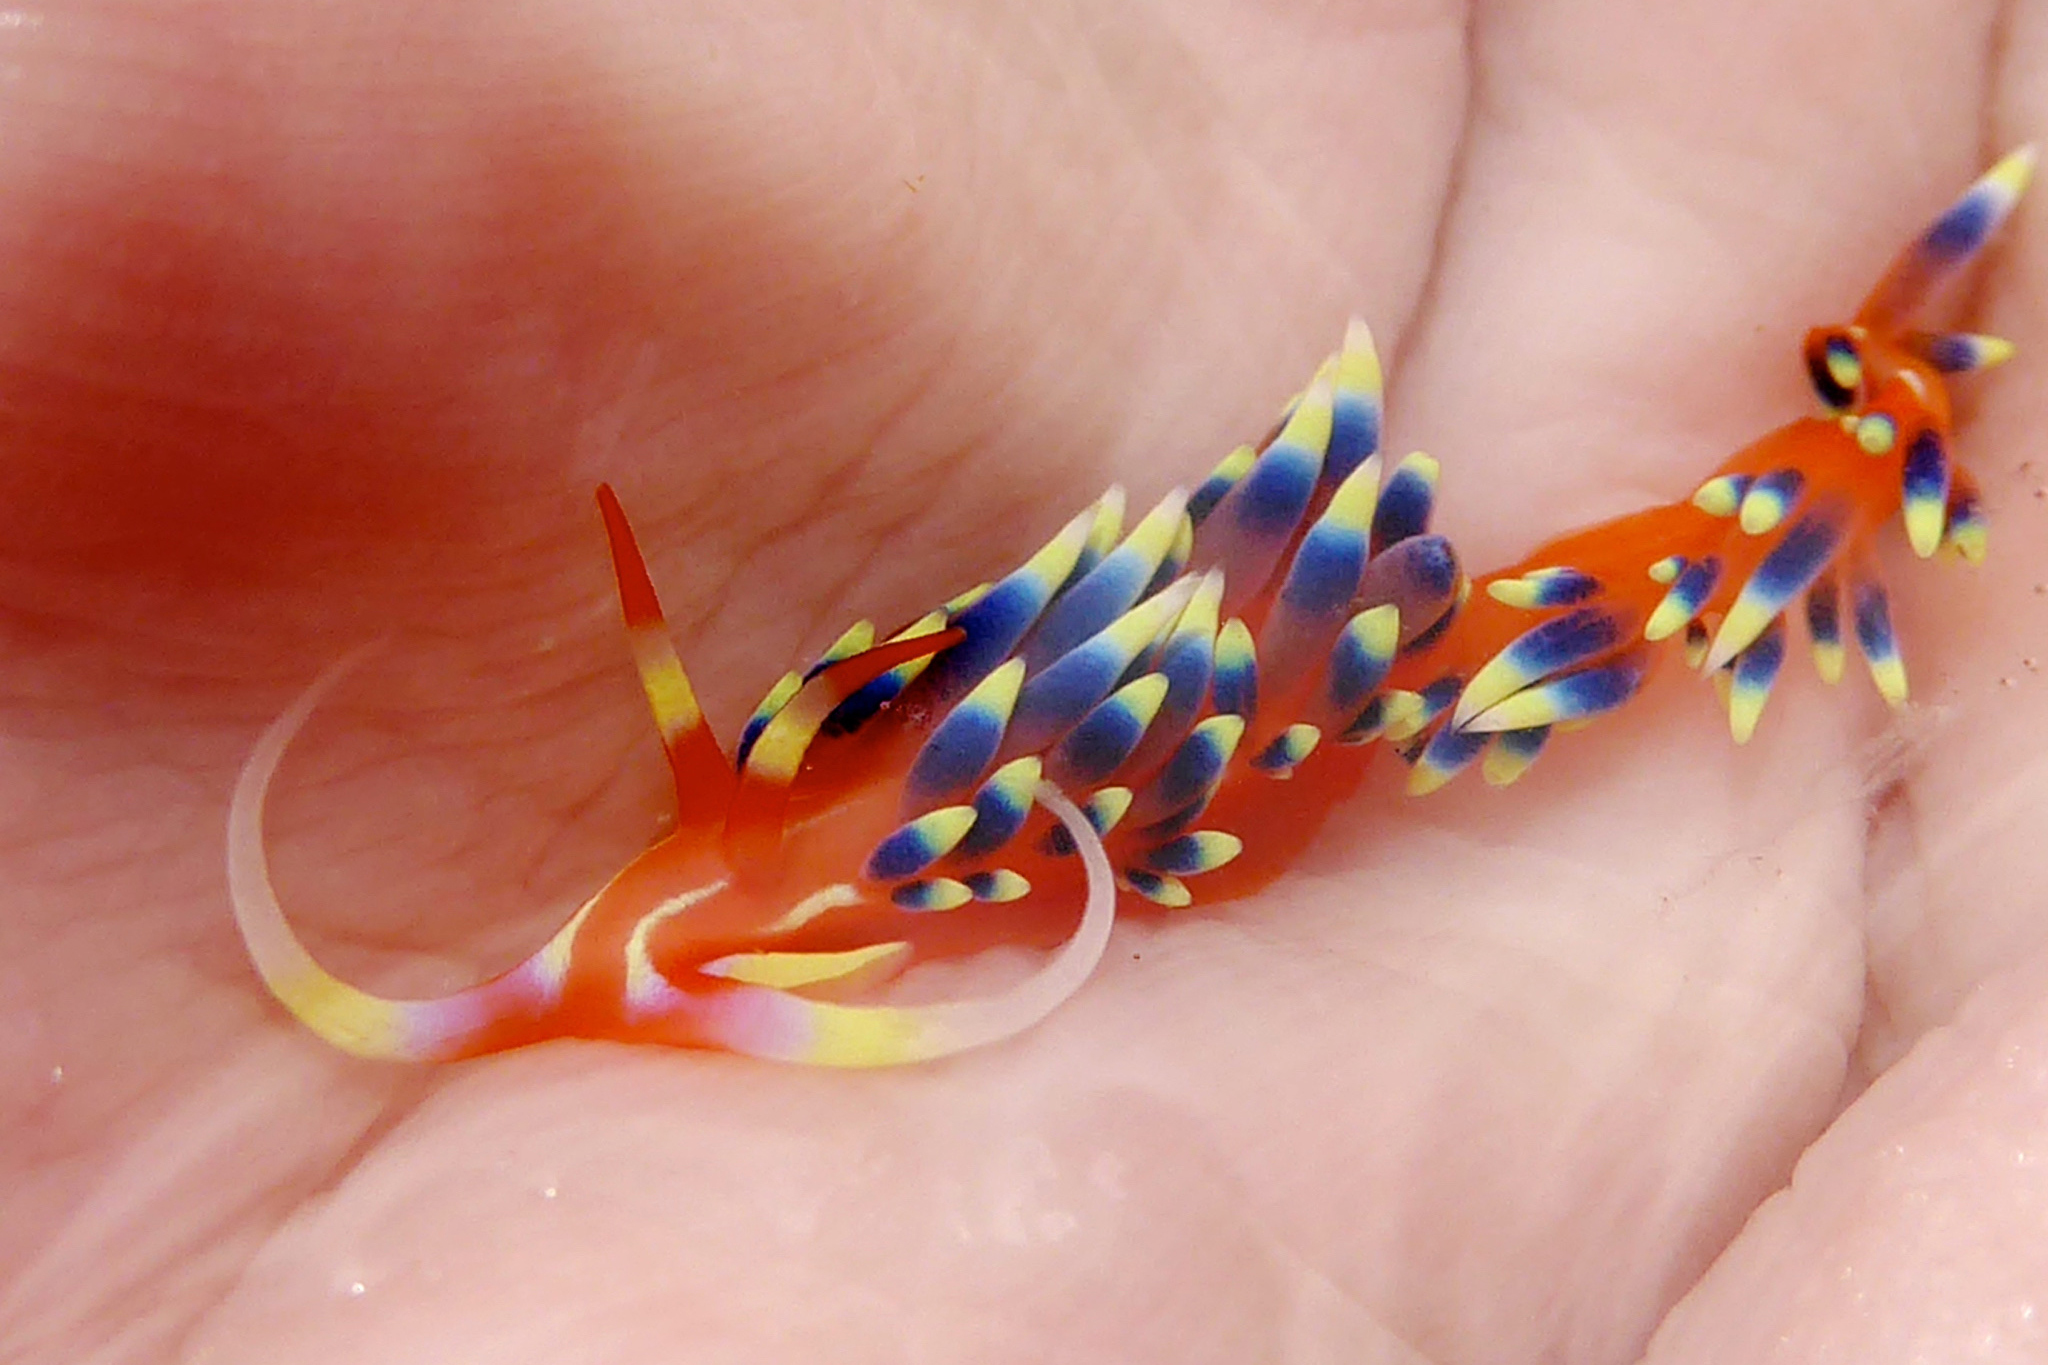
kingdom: Animalia
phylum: Mollusca
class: Gastropoda
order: Nudibranchia
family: Facelinidae
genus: Caloria
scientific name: Caloria indica
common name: Sea slug
